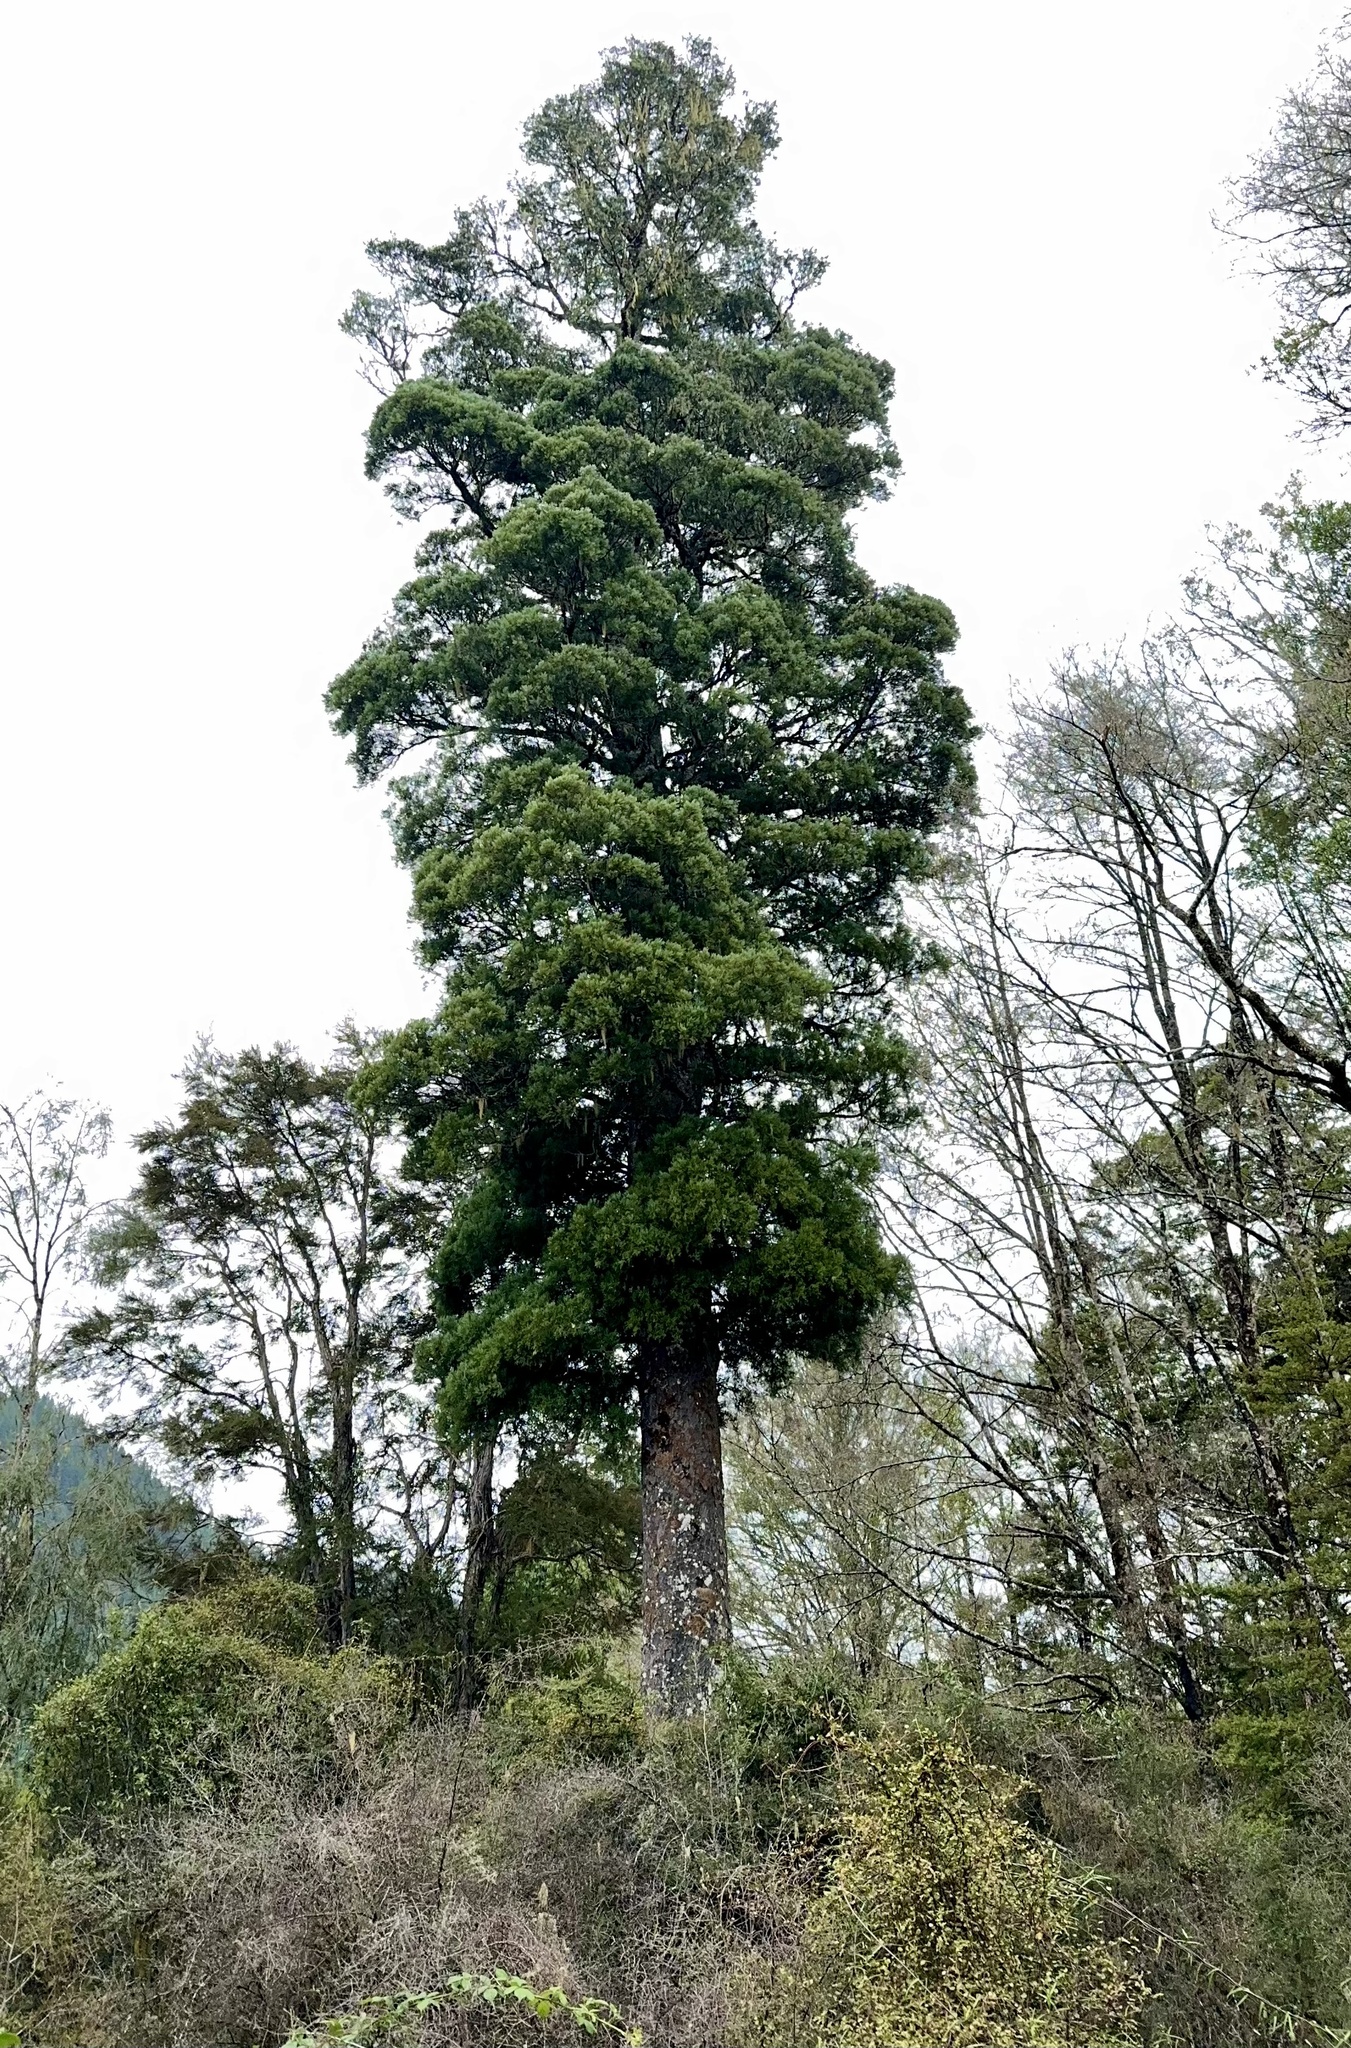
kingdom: Plantae
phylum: Tracheophyta
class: Pinopsida
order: Pinales
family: Podocarpaceae
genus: Dacrycarpus
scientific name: Dacrycarpus dacrydioides
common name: White pine
